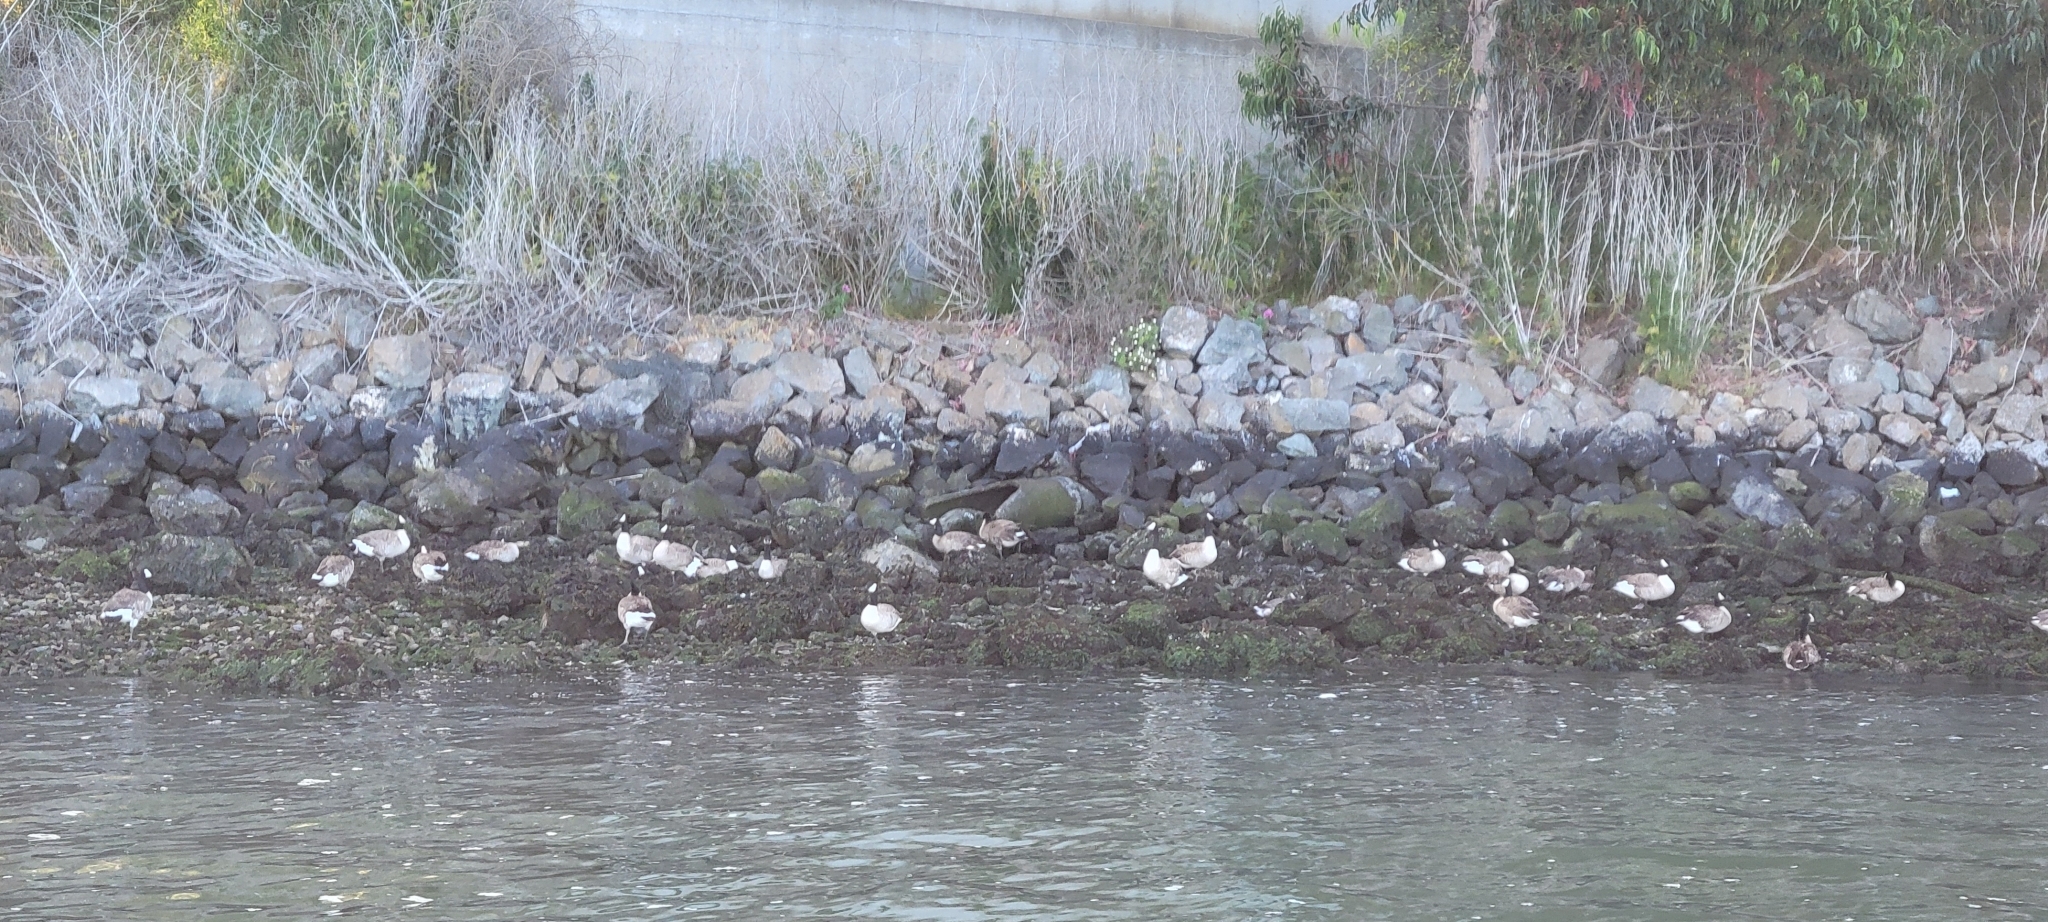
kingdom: Animalia
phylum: Chordata
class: Aves
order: Anseriformes
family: Anatidae
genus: Branta
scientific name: Branta canadensis
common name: Canada goose
